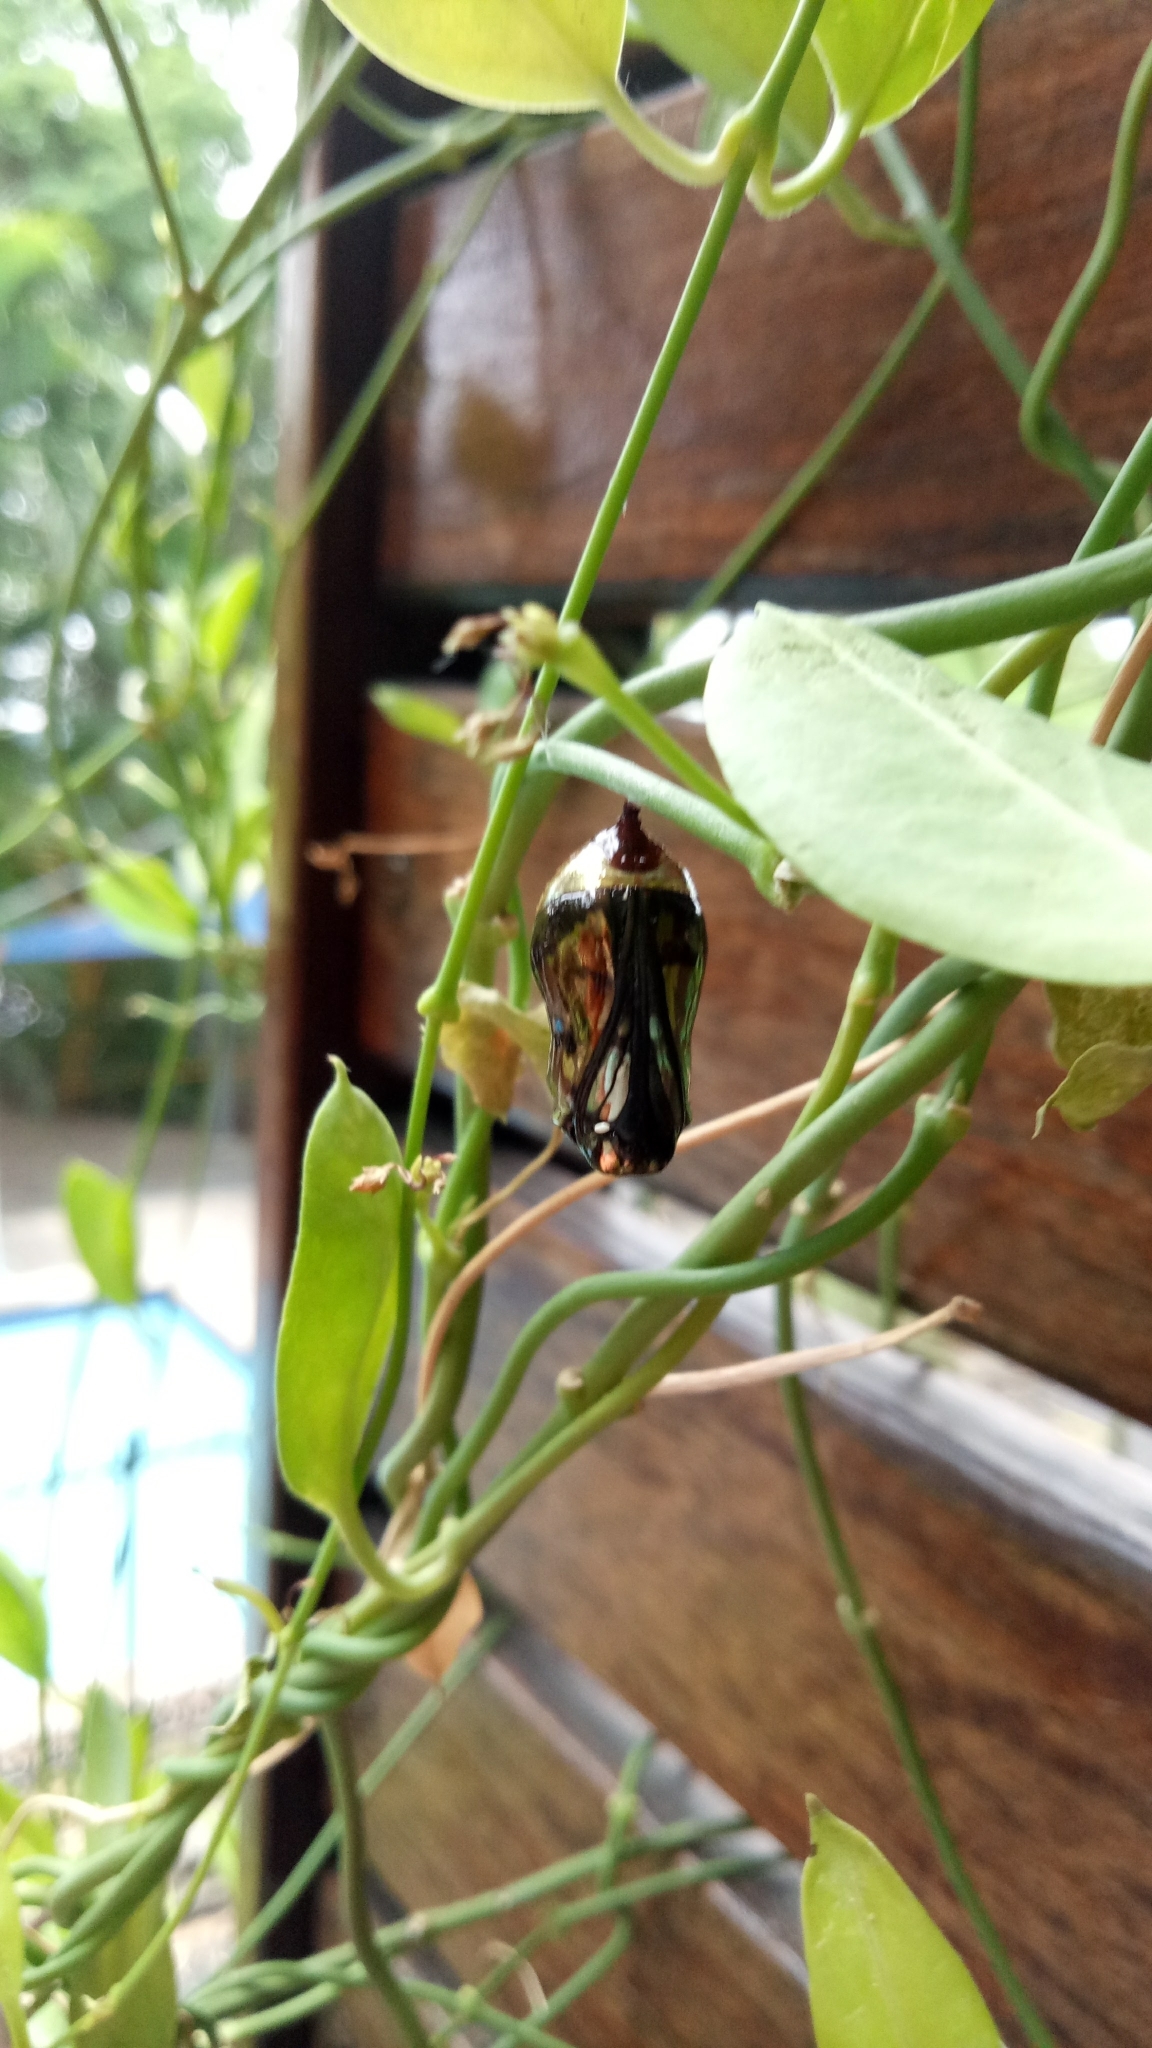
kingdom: Animalia
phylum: Arthropoda
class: Insecta
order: Lepidoptera
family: Nymphalidae
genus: Euploea
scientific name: Euploea core
